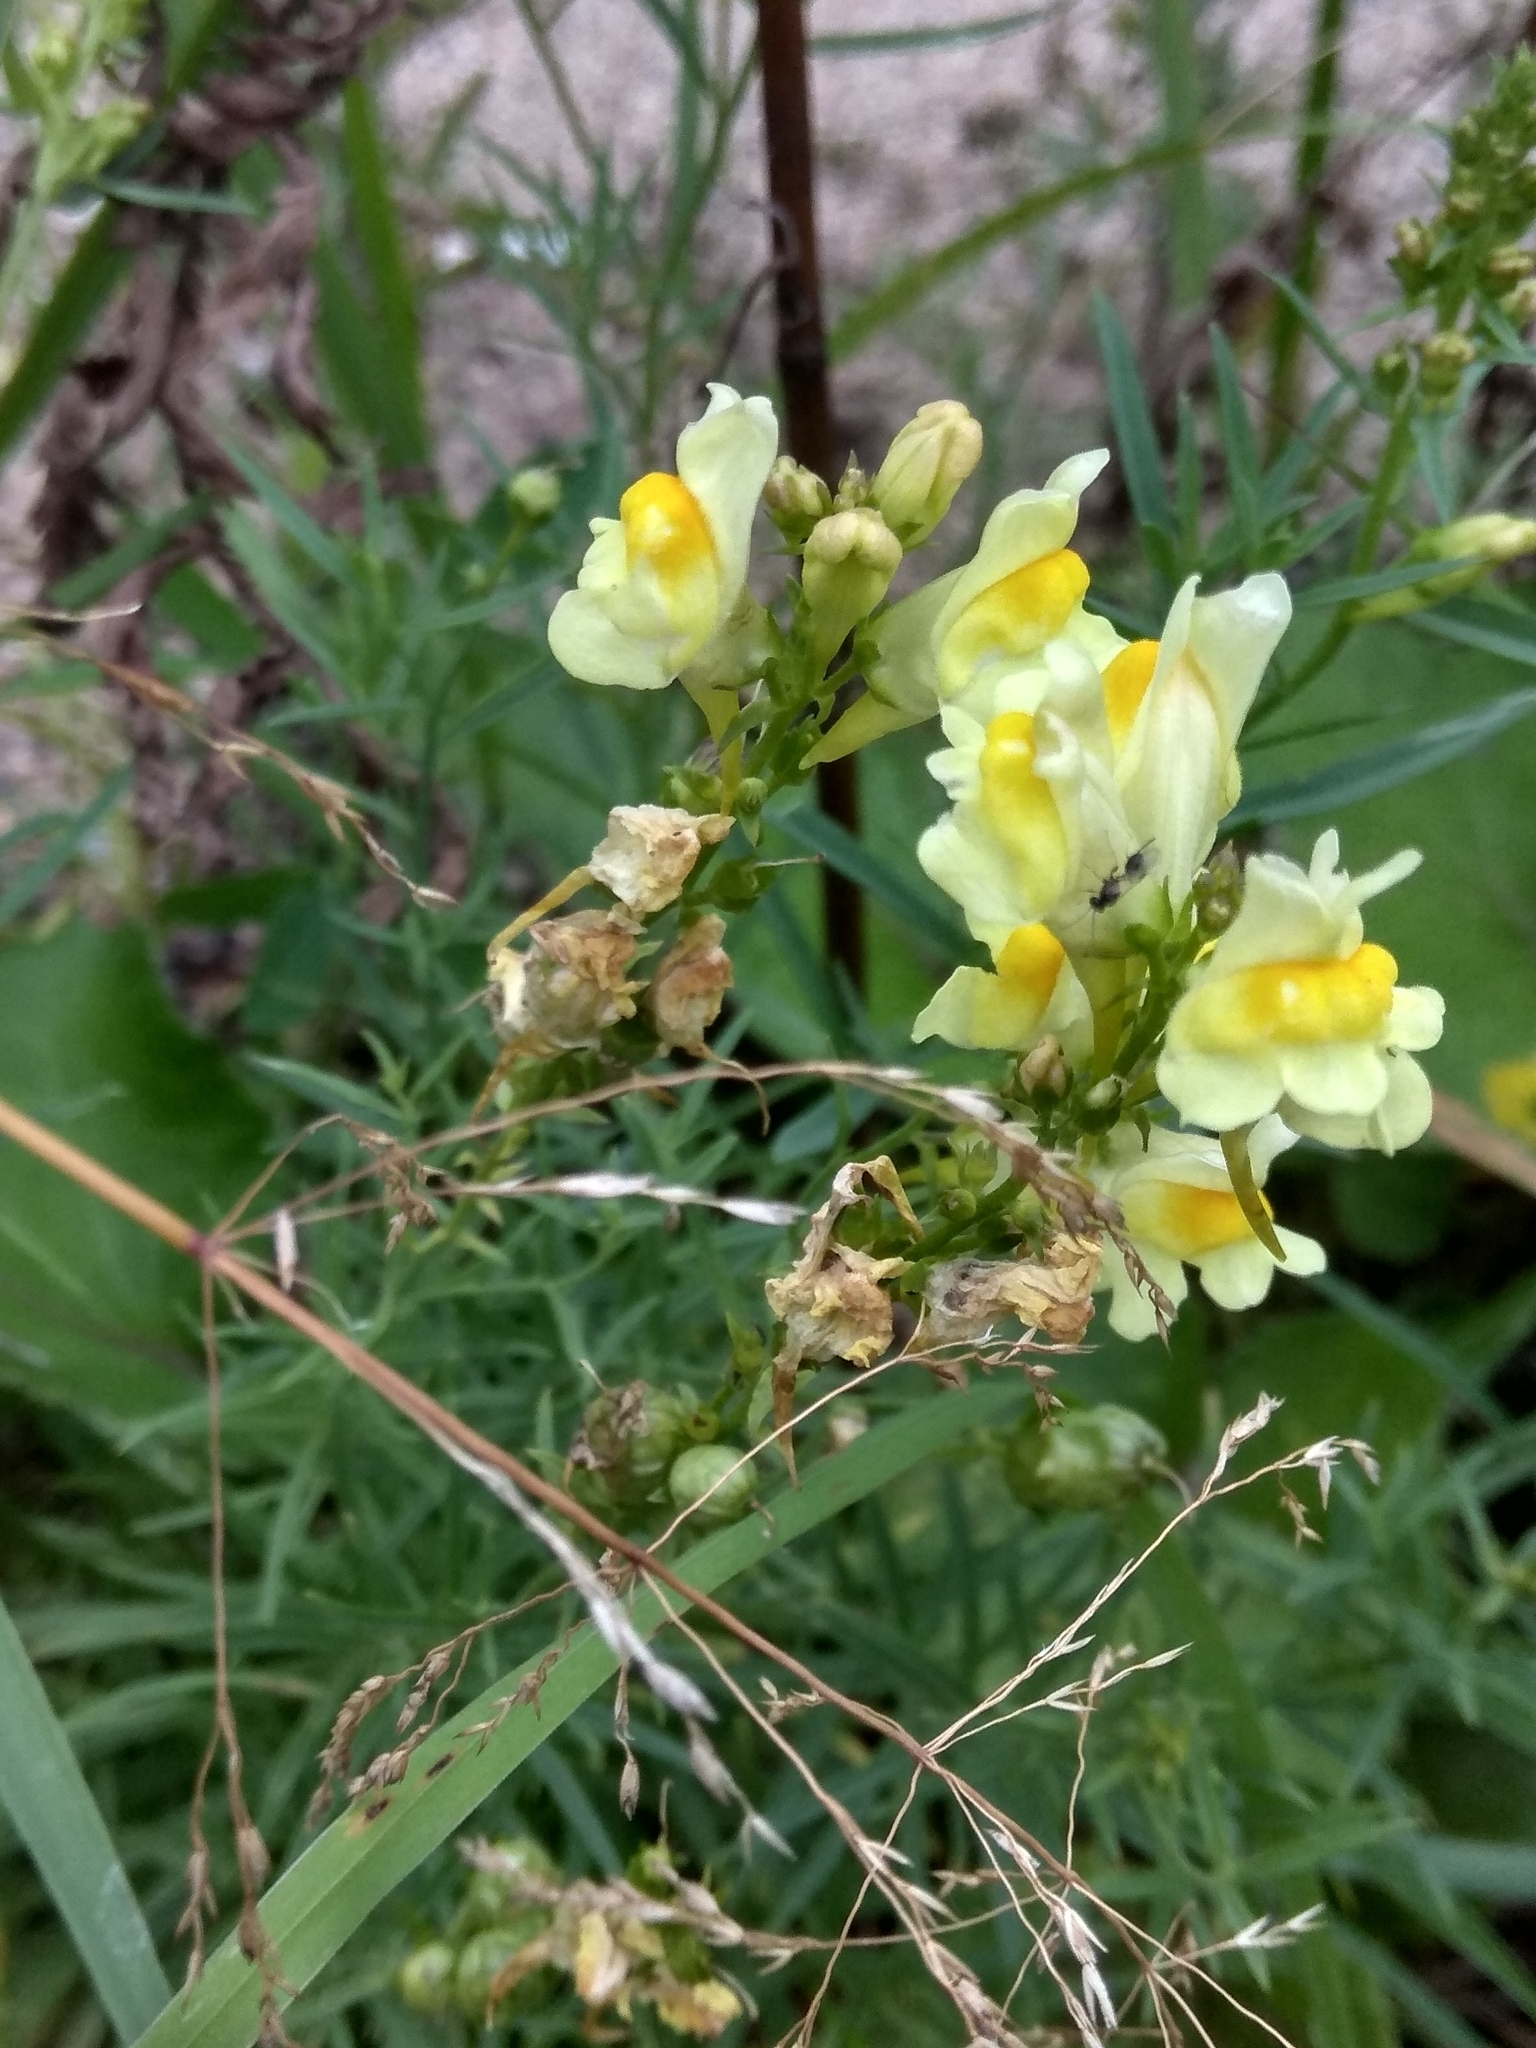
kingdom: Plantae
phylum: Tracheophyta
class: Magnoliopsida
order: Lamiales
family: Plantaginaceae
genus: Linaria
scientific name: Linaria vulgaris
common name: Butter and eggs
